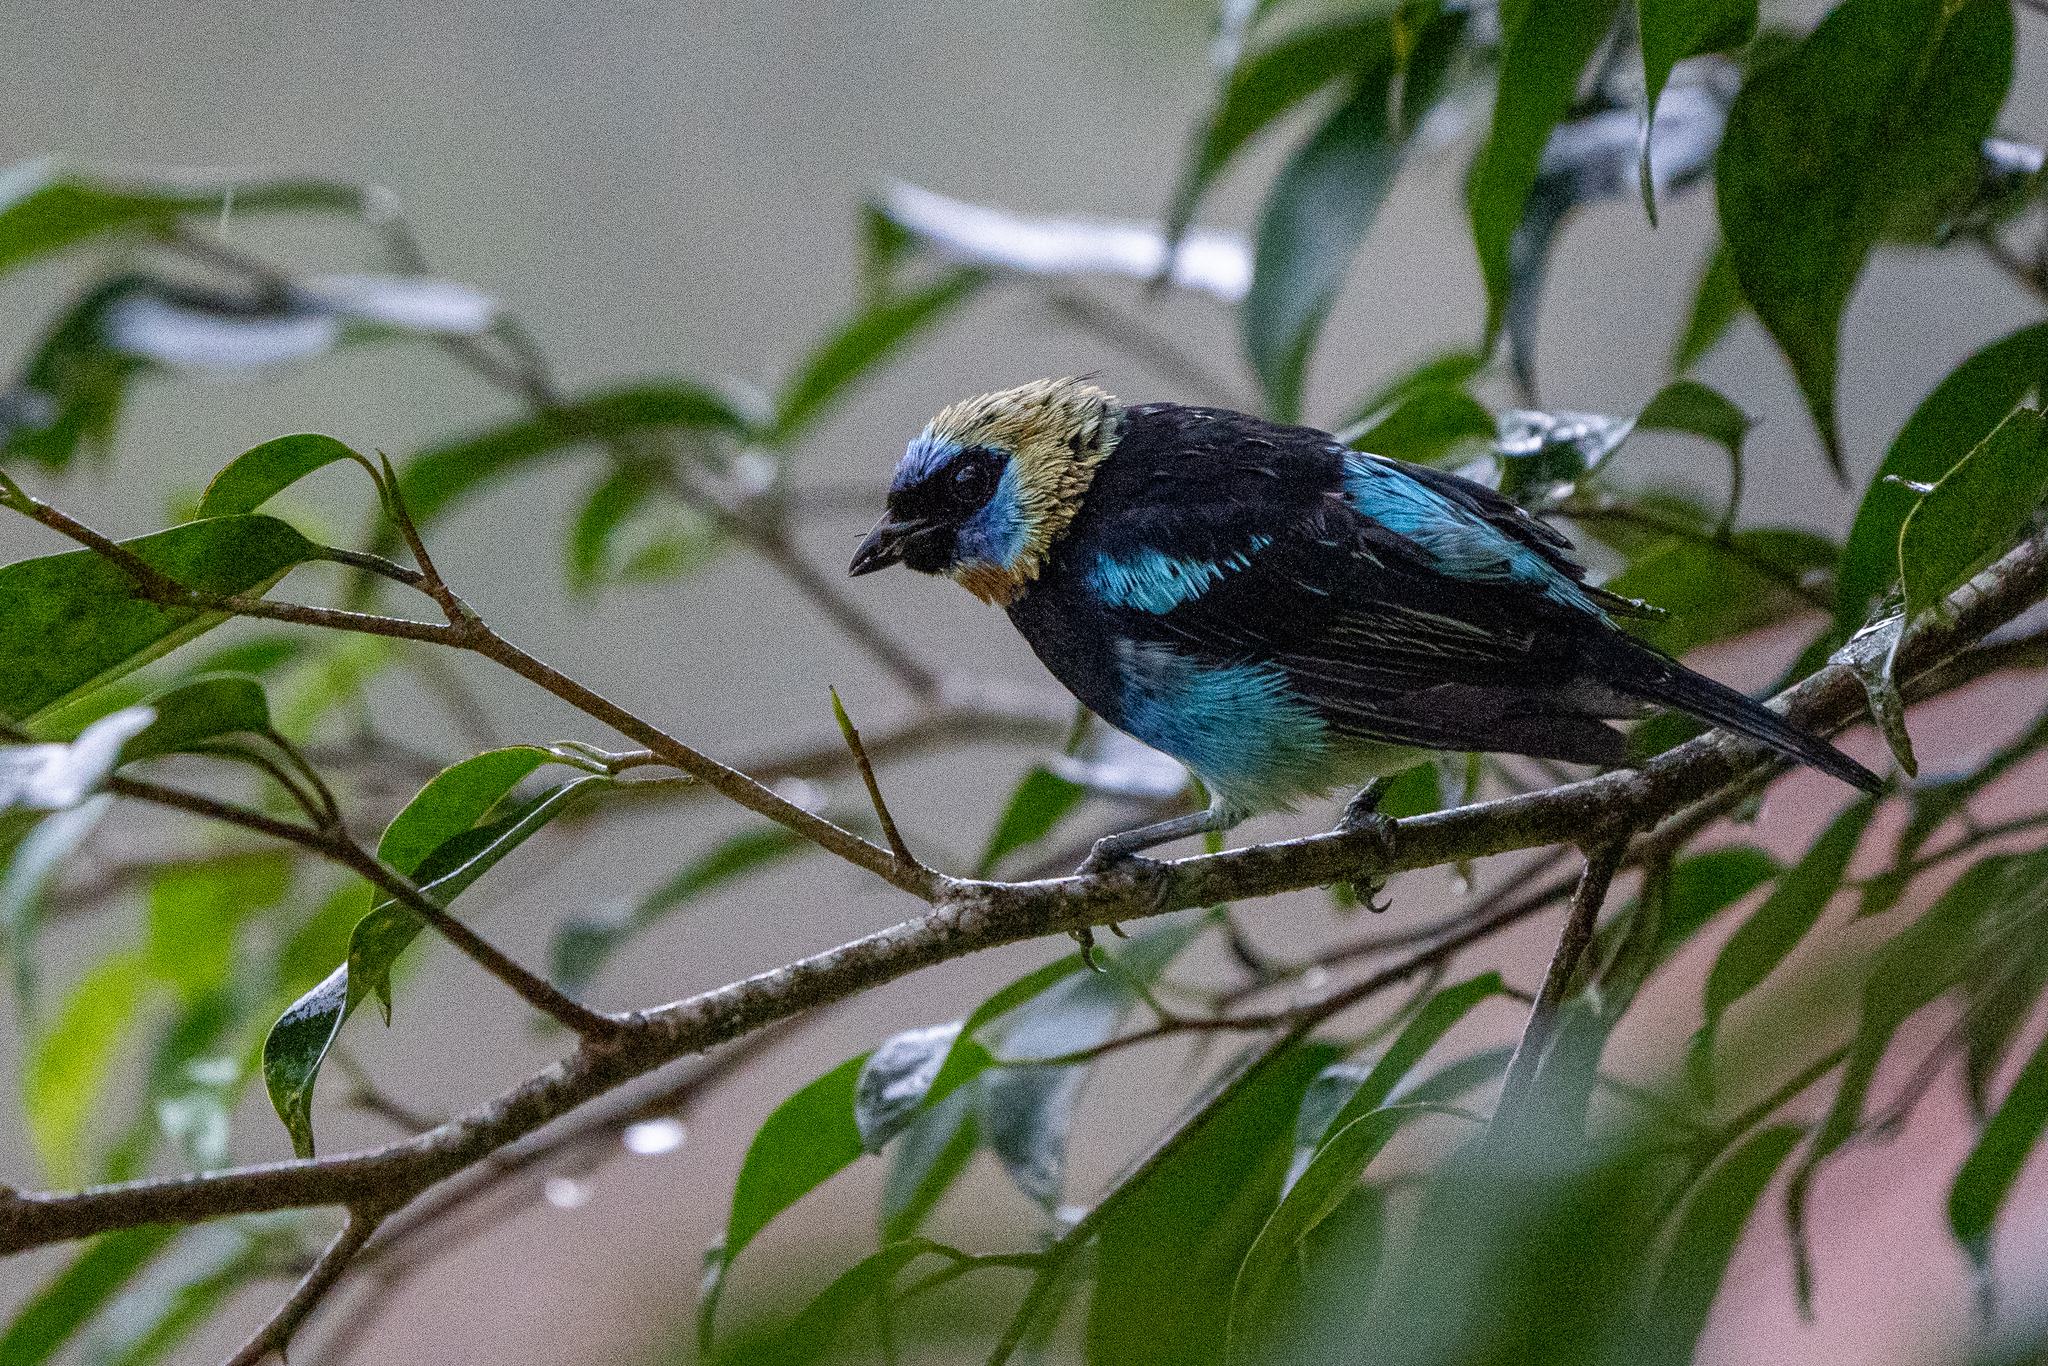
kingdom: Animalia
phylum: Chordata
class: Aves
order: Passeriformes
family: Thraupidae
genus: Stilpnia
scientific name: Stilpnia larvata
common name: Golden-hooded tanager
